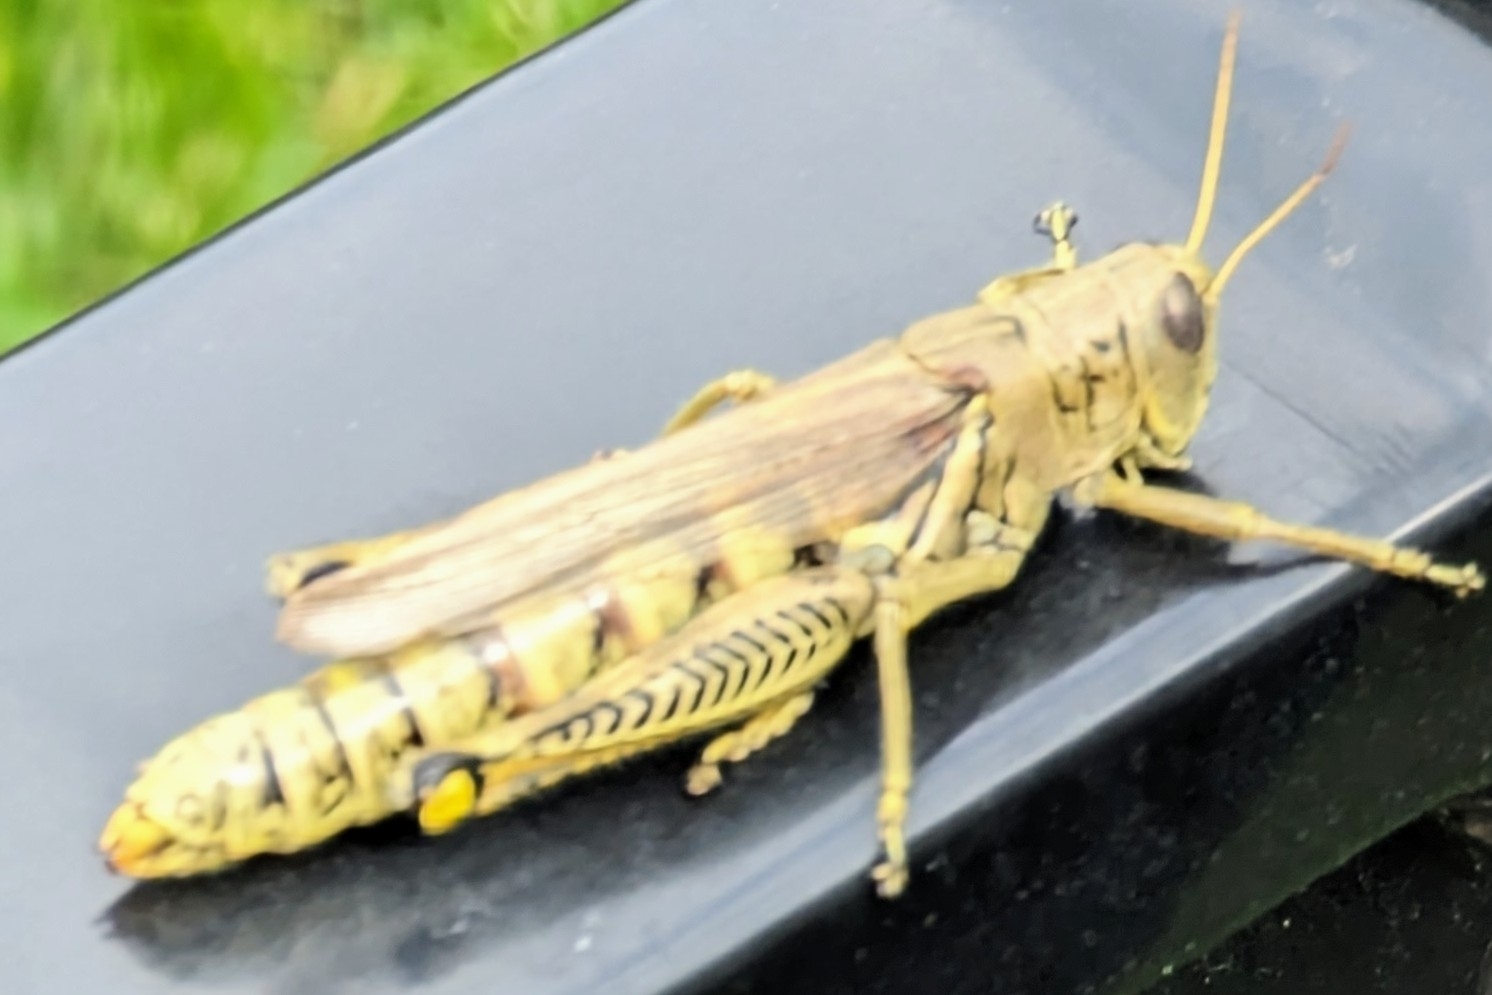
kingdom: Animalia
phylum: Arthropoda
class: Insecta
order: Orthoptera
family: Acrididae
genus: Melanoplus
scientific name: Melanoplus differentialis
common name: Differential grasshopper
